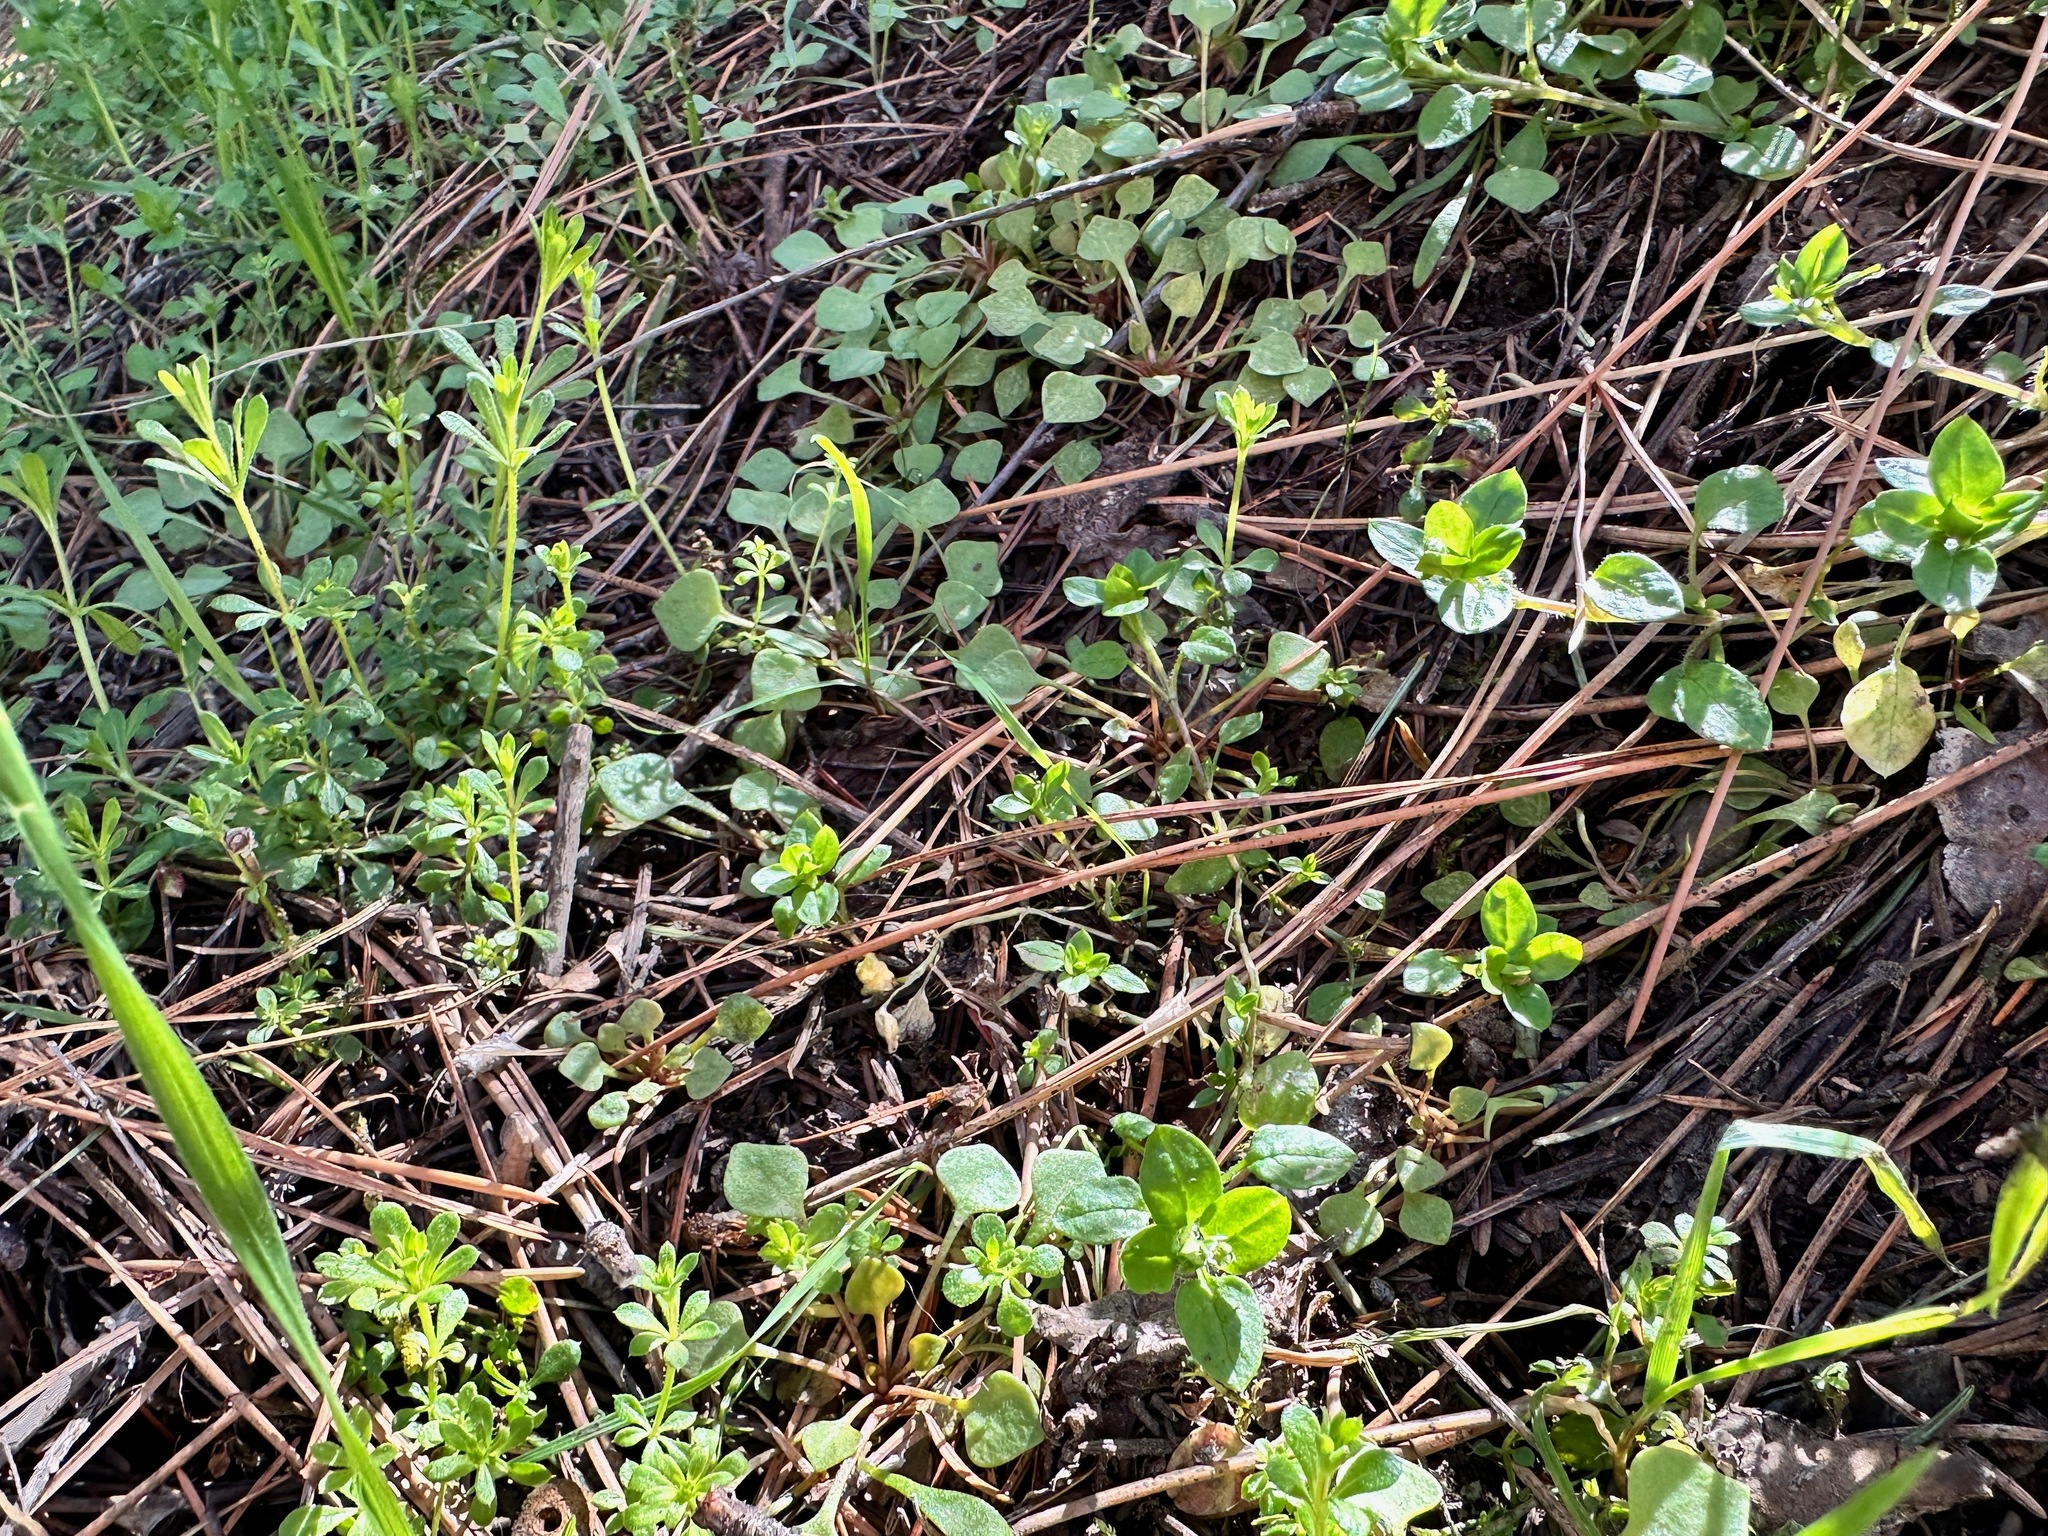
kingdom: Plantae
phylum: Tracheophyta
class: Magnoliopsida
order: Caryophyllales
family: Montiaceae
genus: Claytonia
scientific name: Claytonia rubra
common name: Erubescent miner's-lettuce
